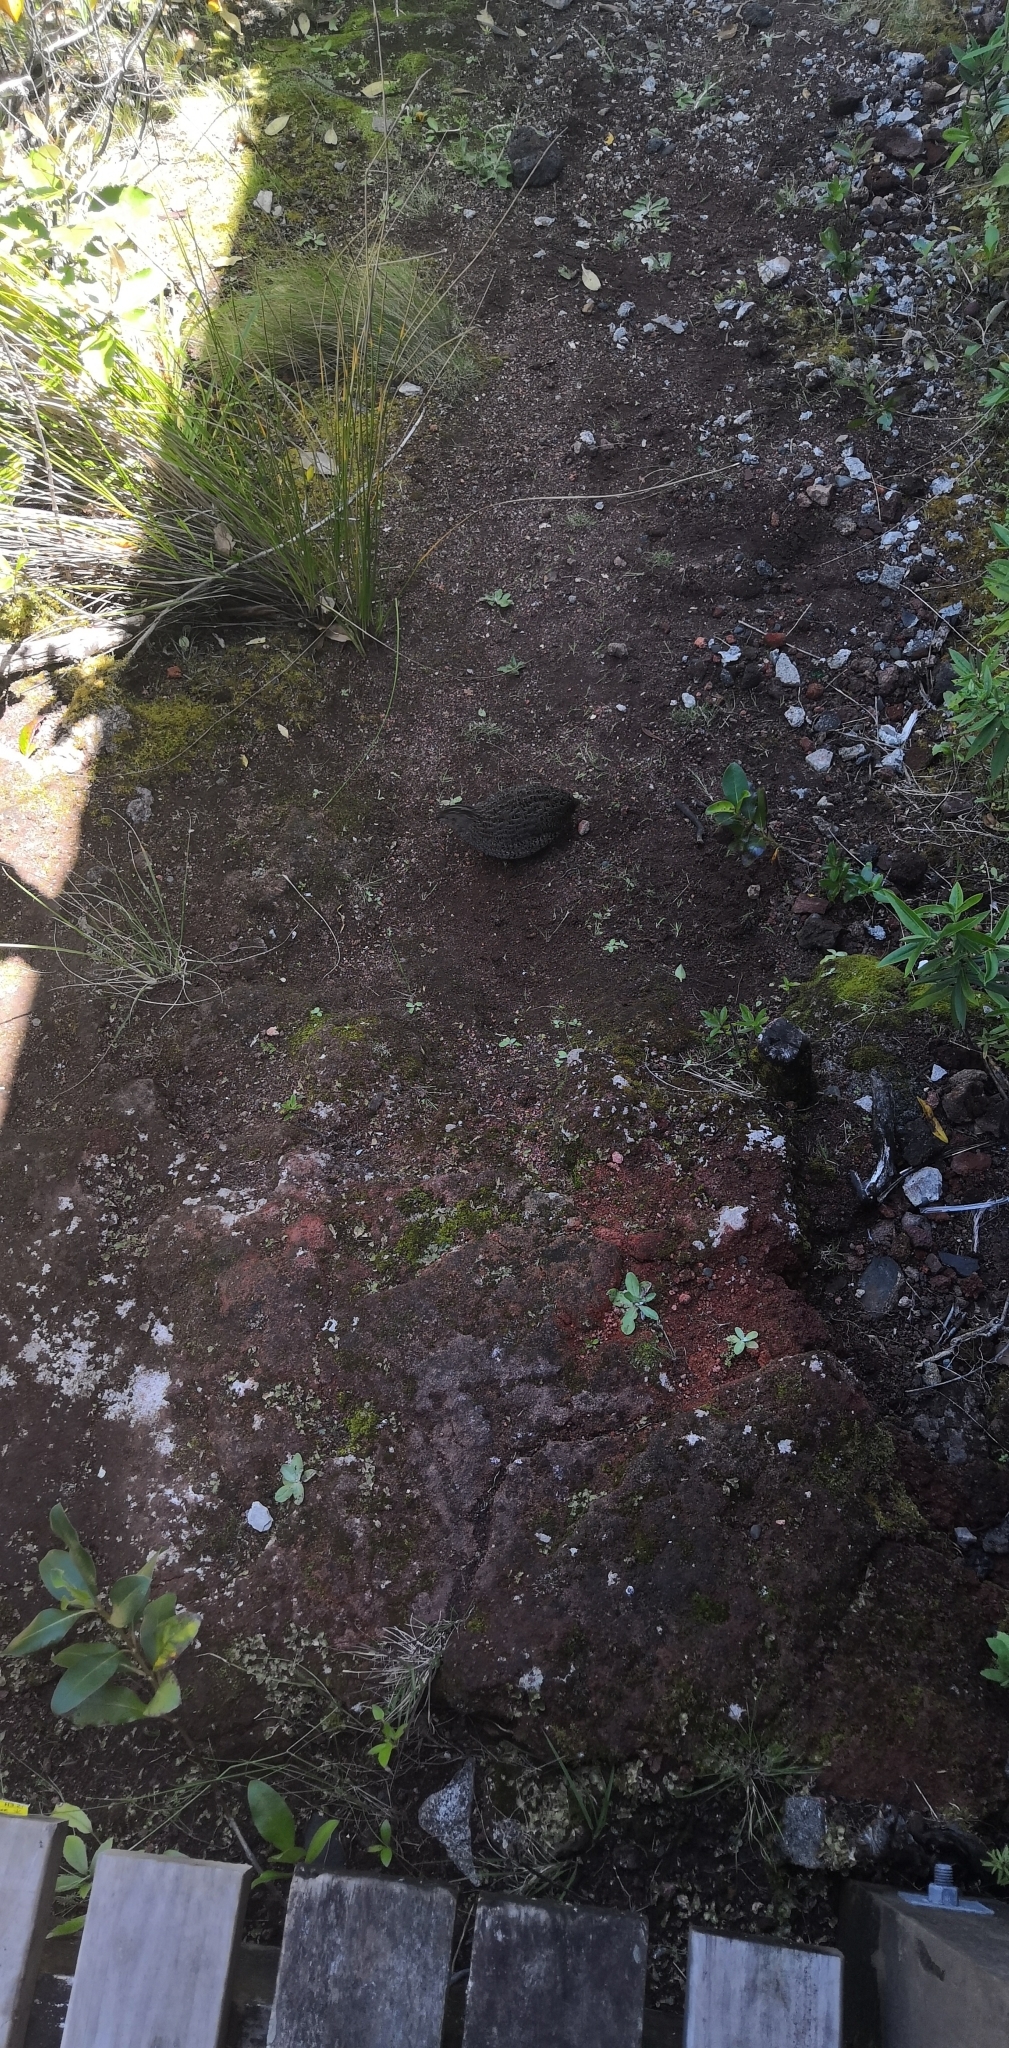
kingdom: Animalia
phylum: Chordata
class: Aves
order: Galliformes
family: Phasianidae
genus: Synoicus
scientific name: Synoicus ypsilophorus
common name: Brown quail
